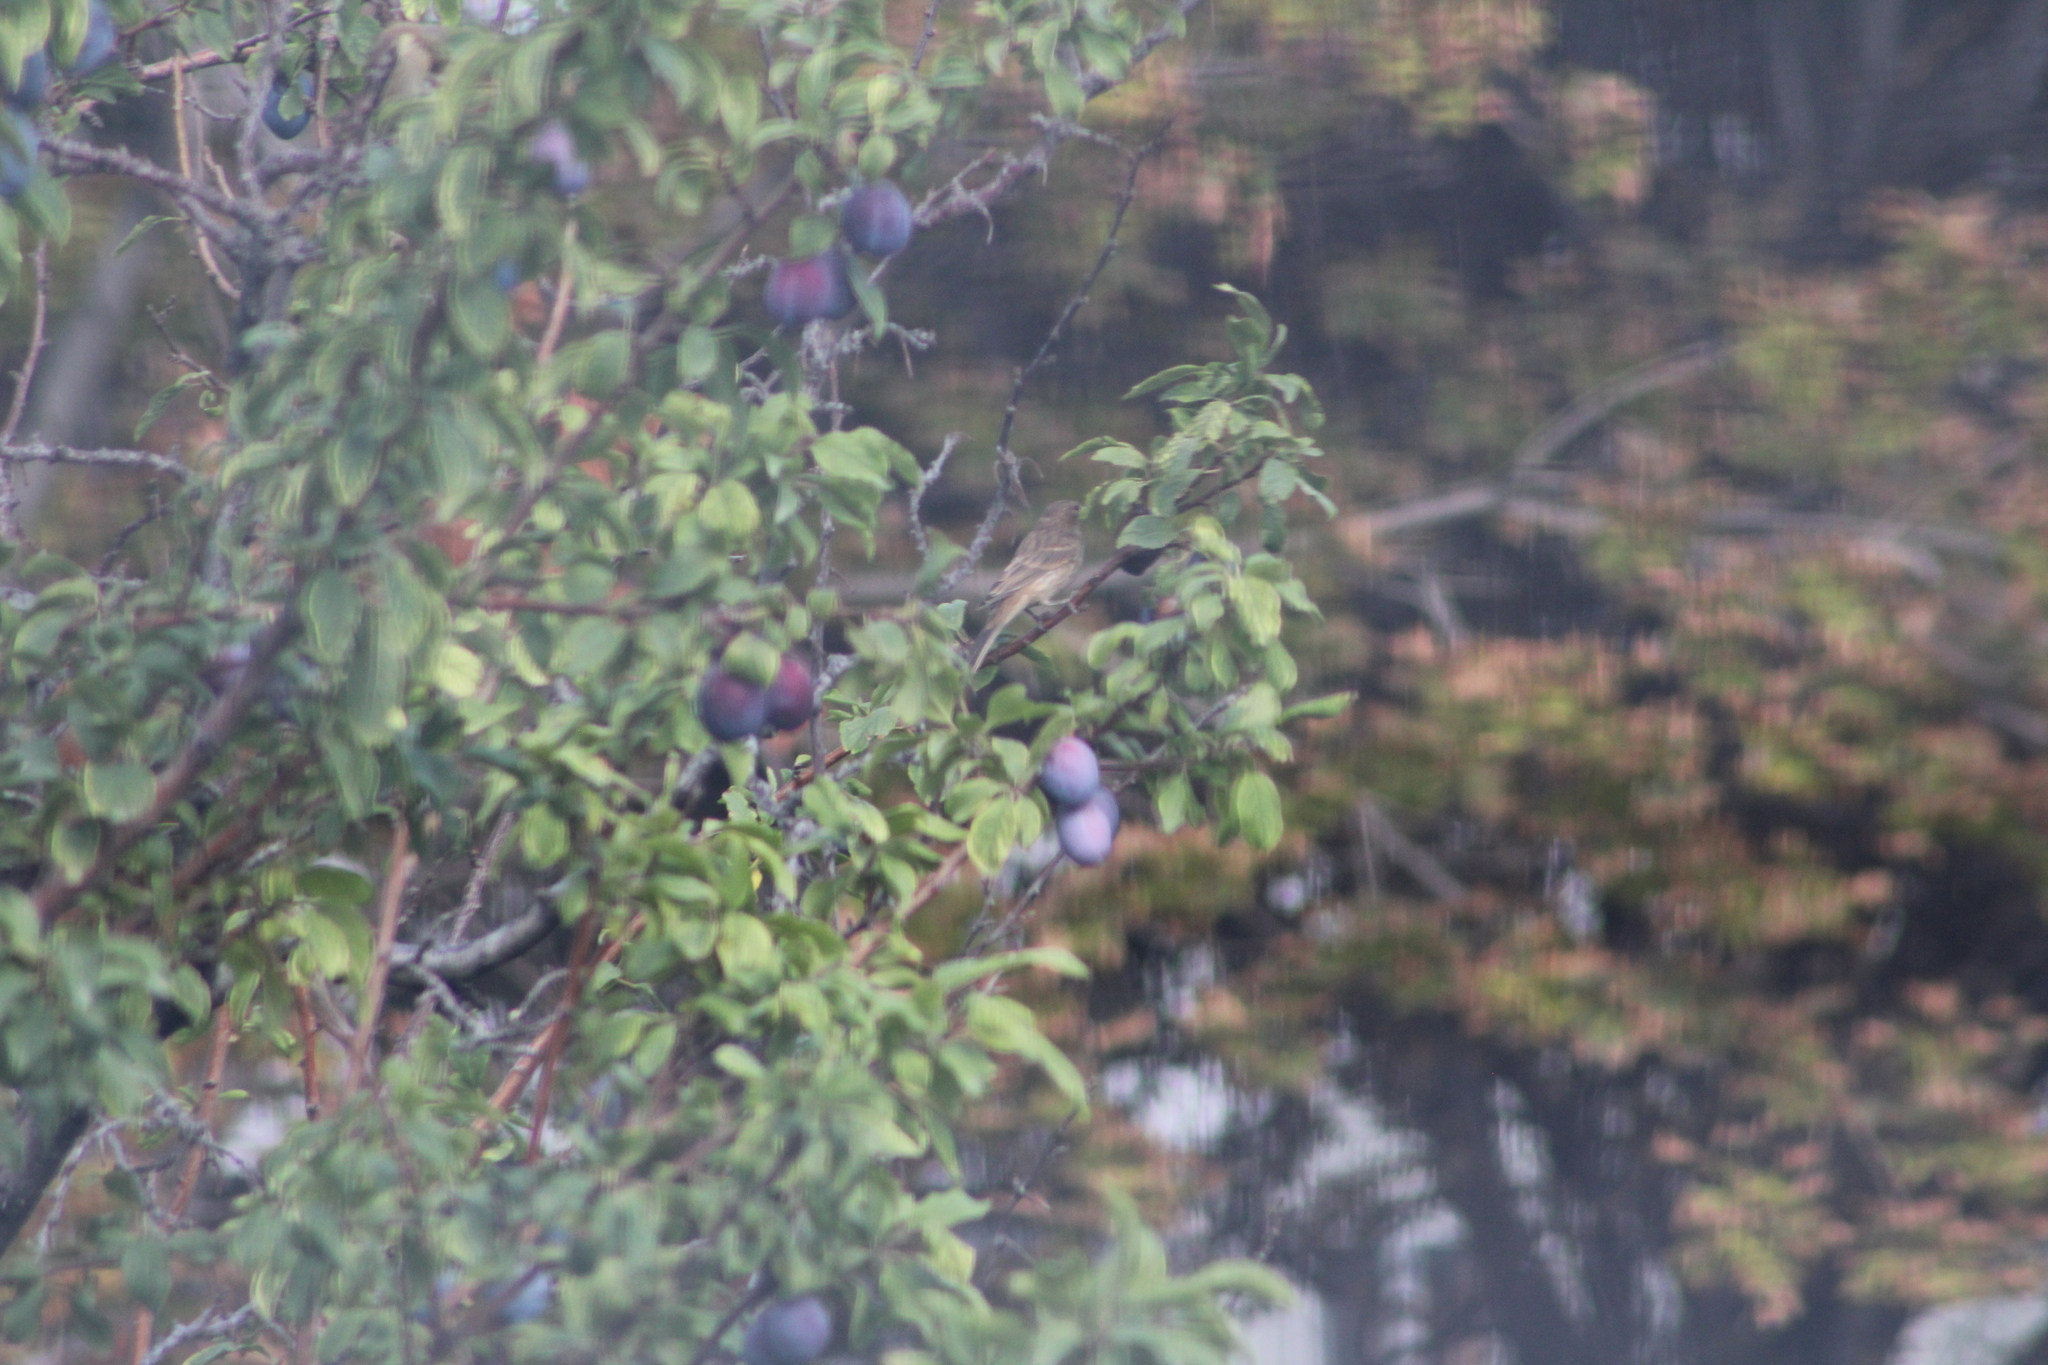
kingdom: Animalia
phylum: Chordata
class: Aves
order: Passeriformes
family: Fringillidae
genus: Haemorhous
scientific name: Haemorhous mexicanus
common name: House finch
